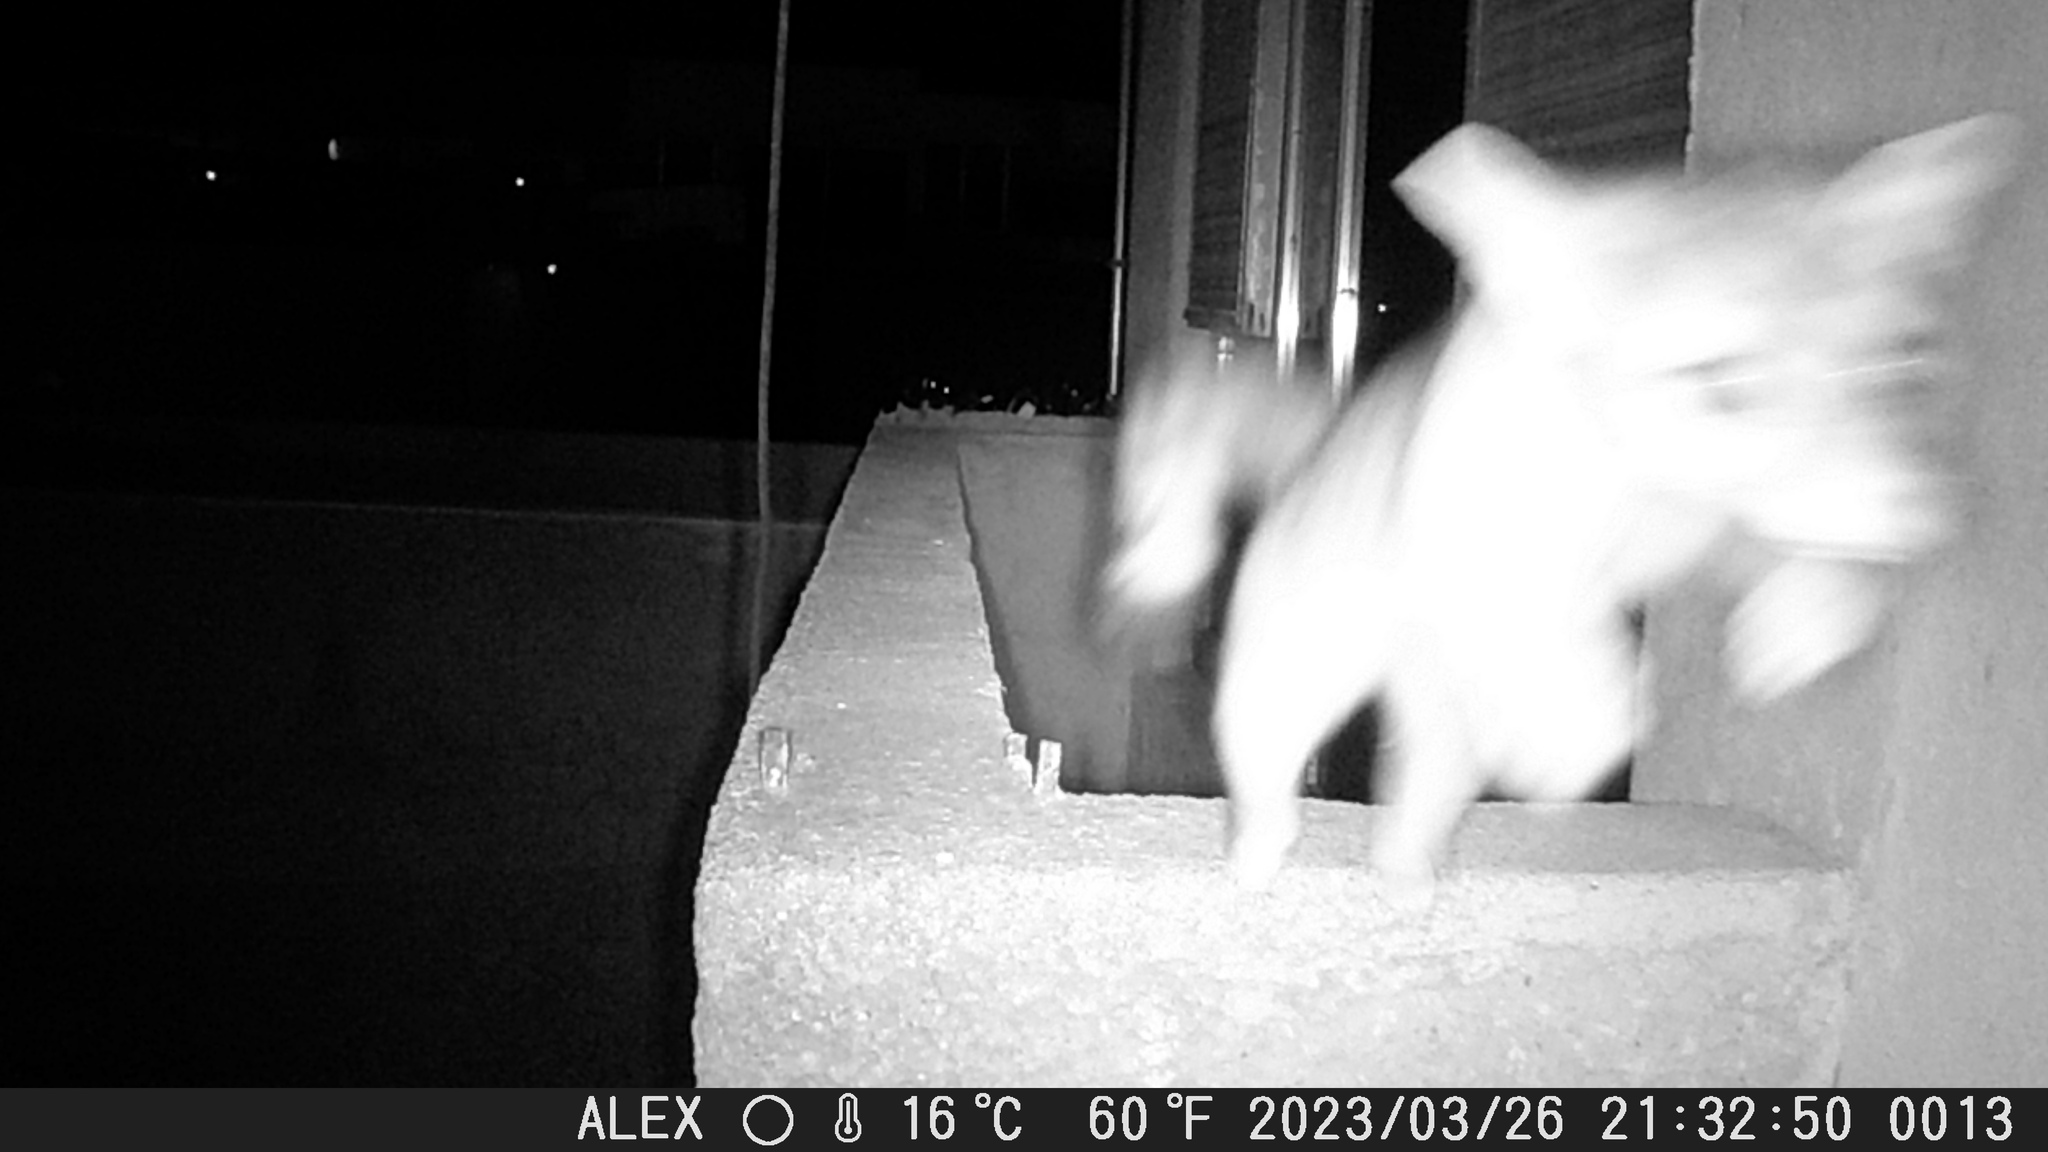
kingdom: Animalia
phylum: Chordata
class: Mammalia
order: Carnivora
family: Procyonidae
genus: Bassariscus
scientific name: Bassariscus astutus
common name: Ringtail
